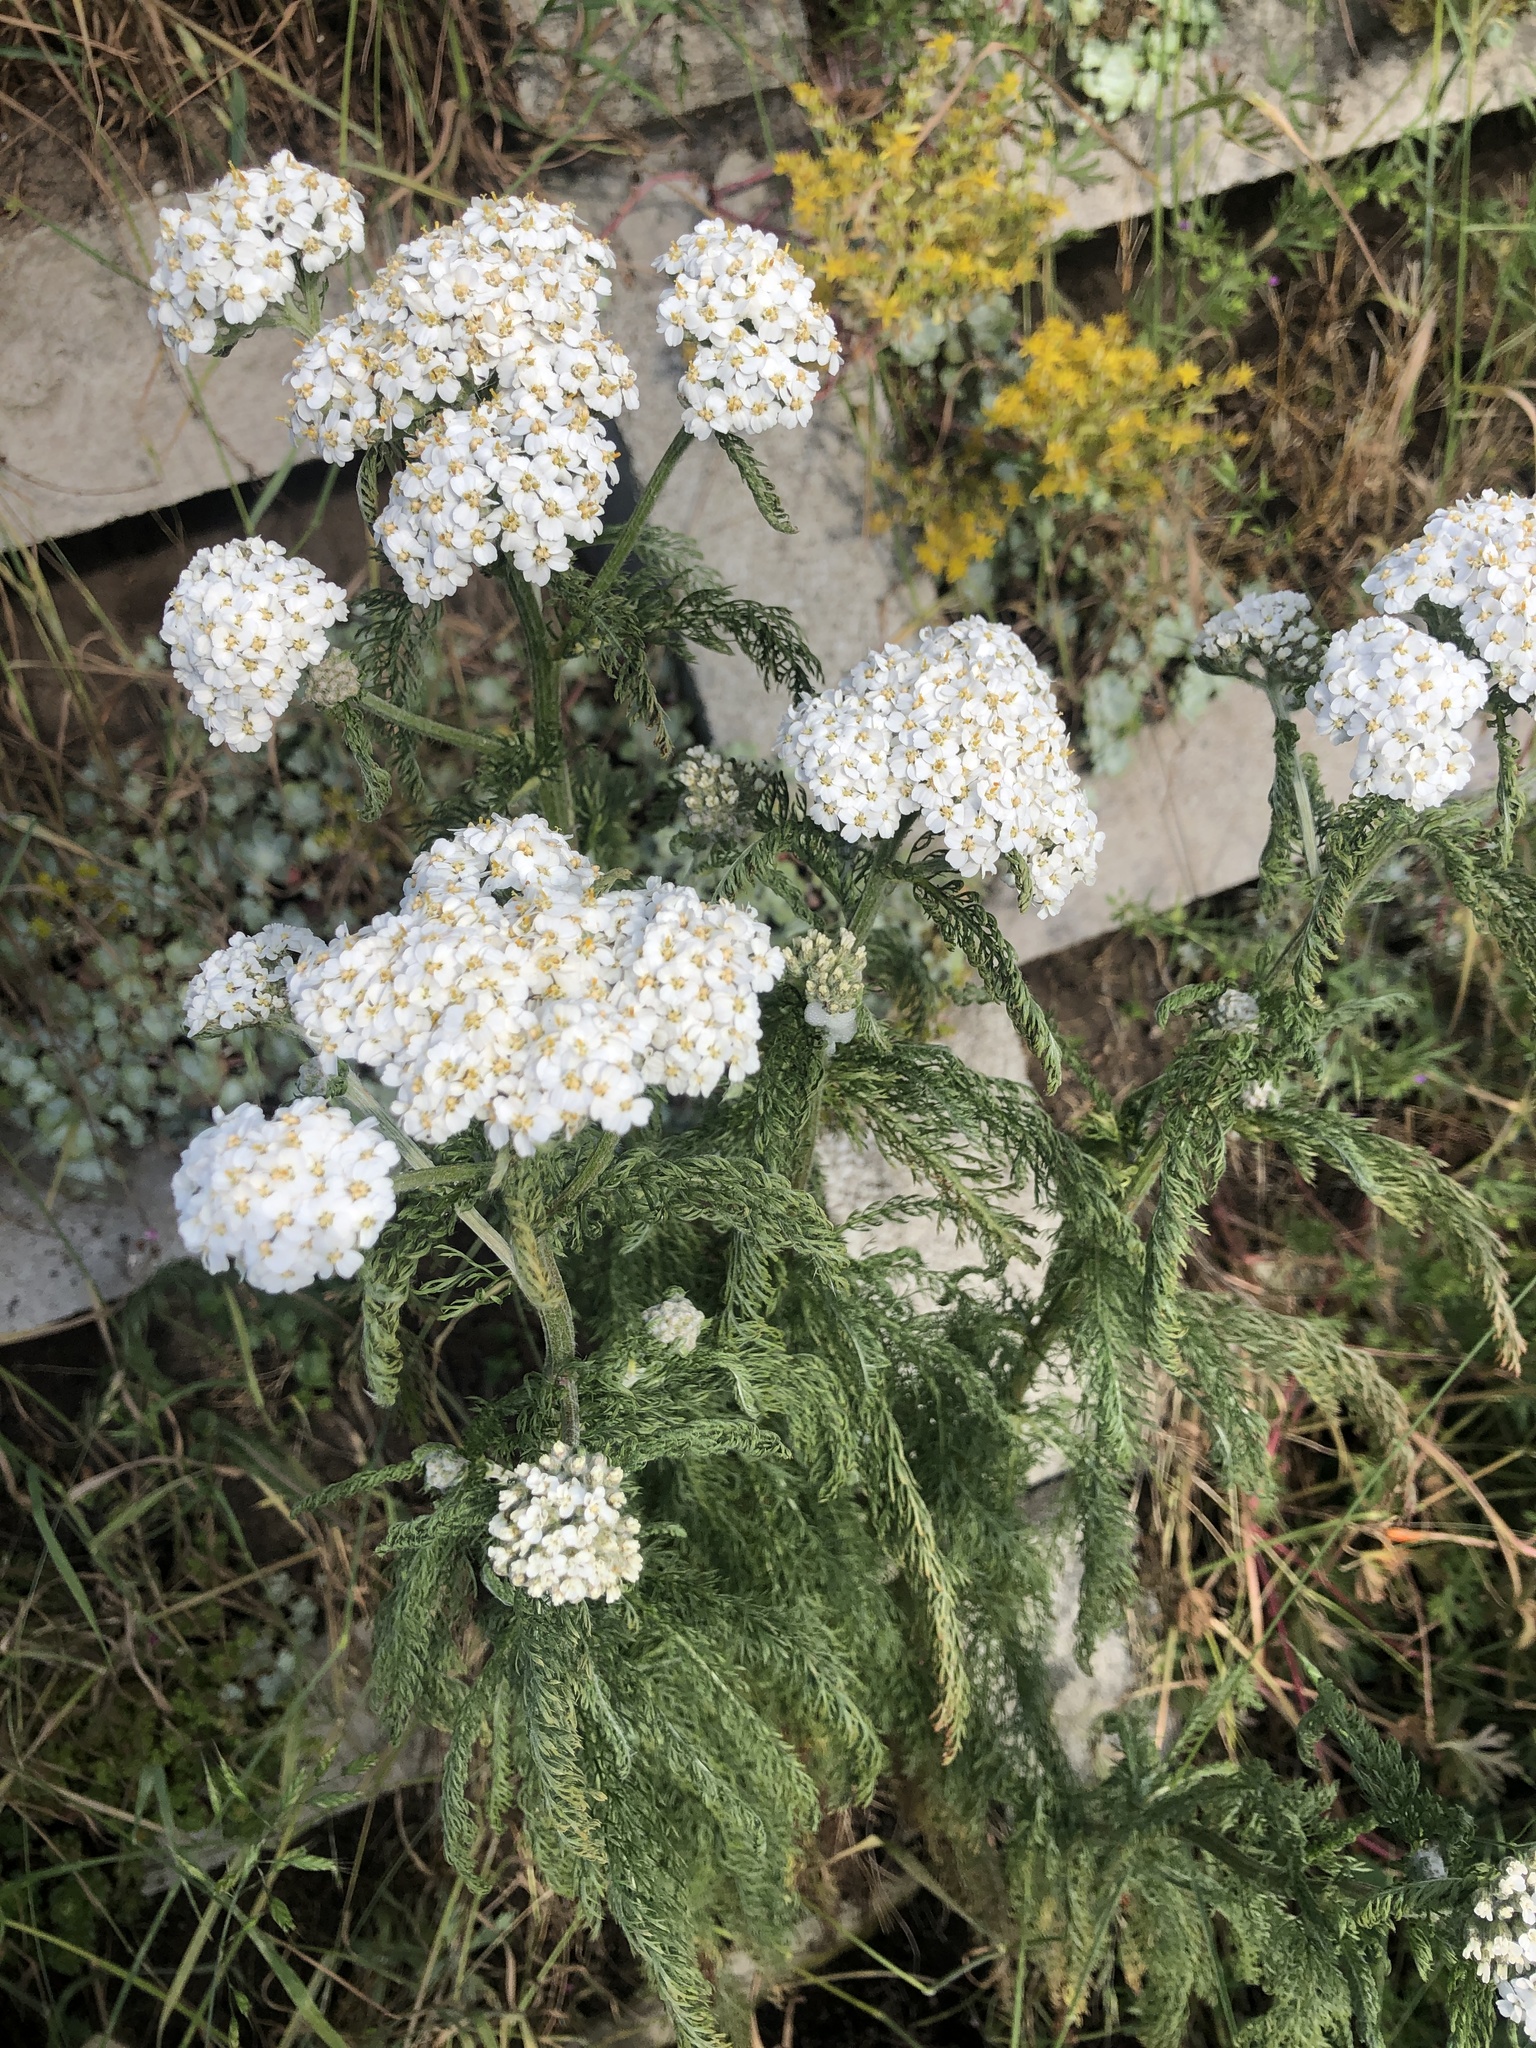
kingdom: Plantae
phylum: Tracheophyta
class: Magnoliopsida
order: Asterales
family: Asteraceae
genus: Achillea
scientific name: Achillea millefolium
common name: Yarrow
